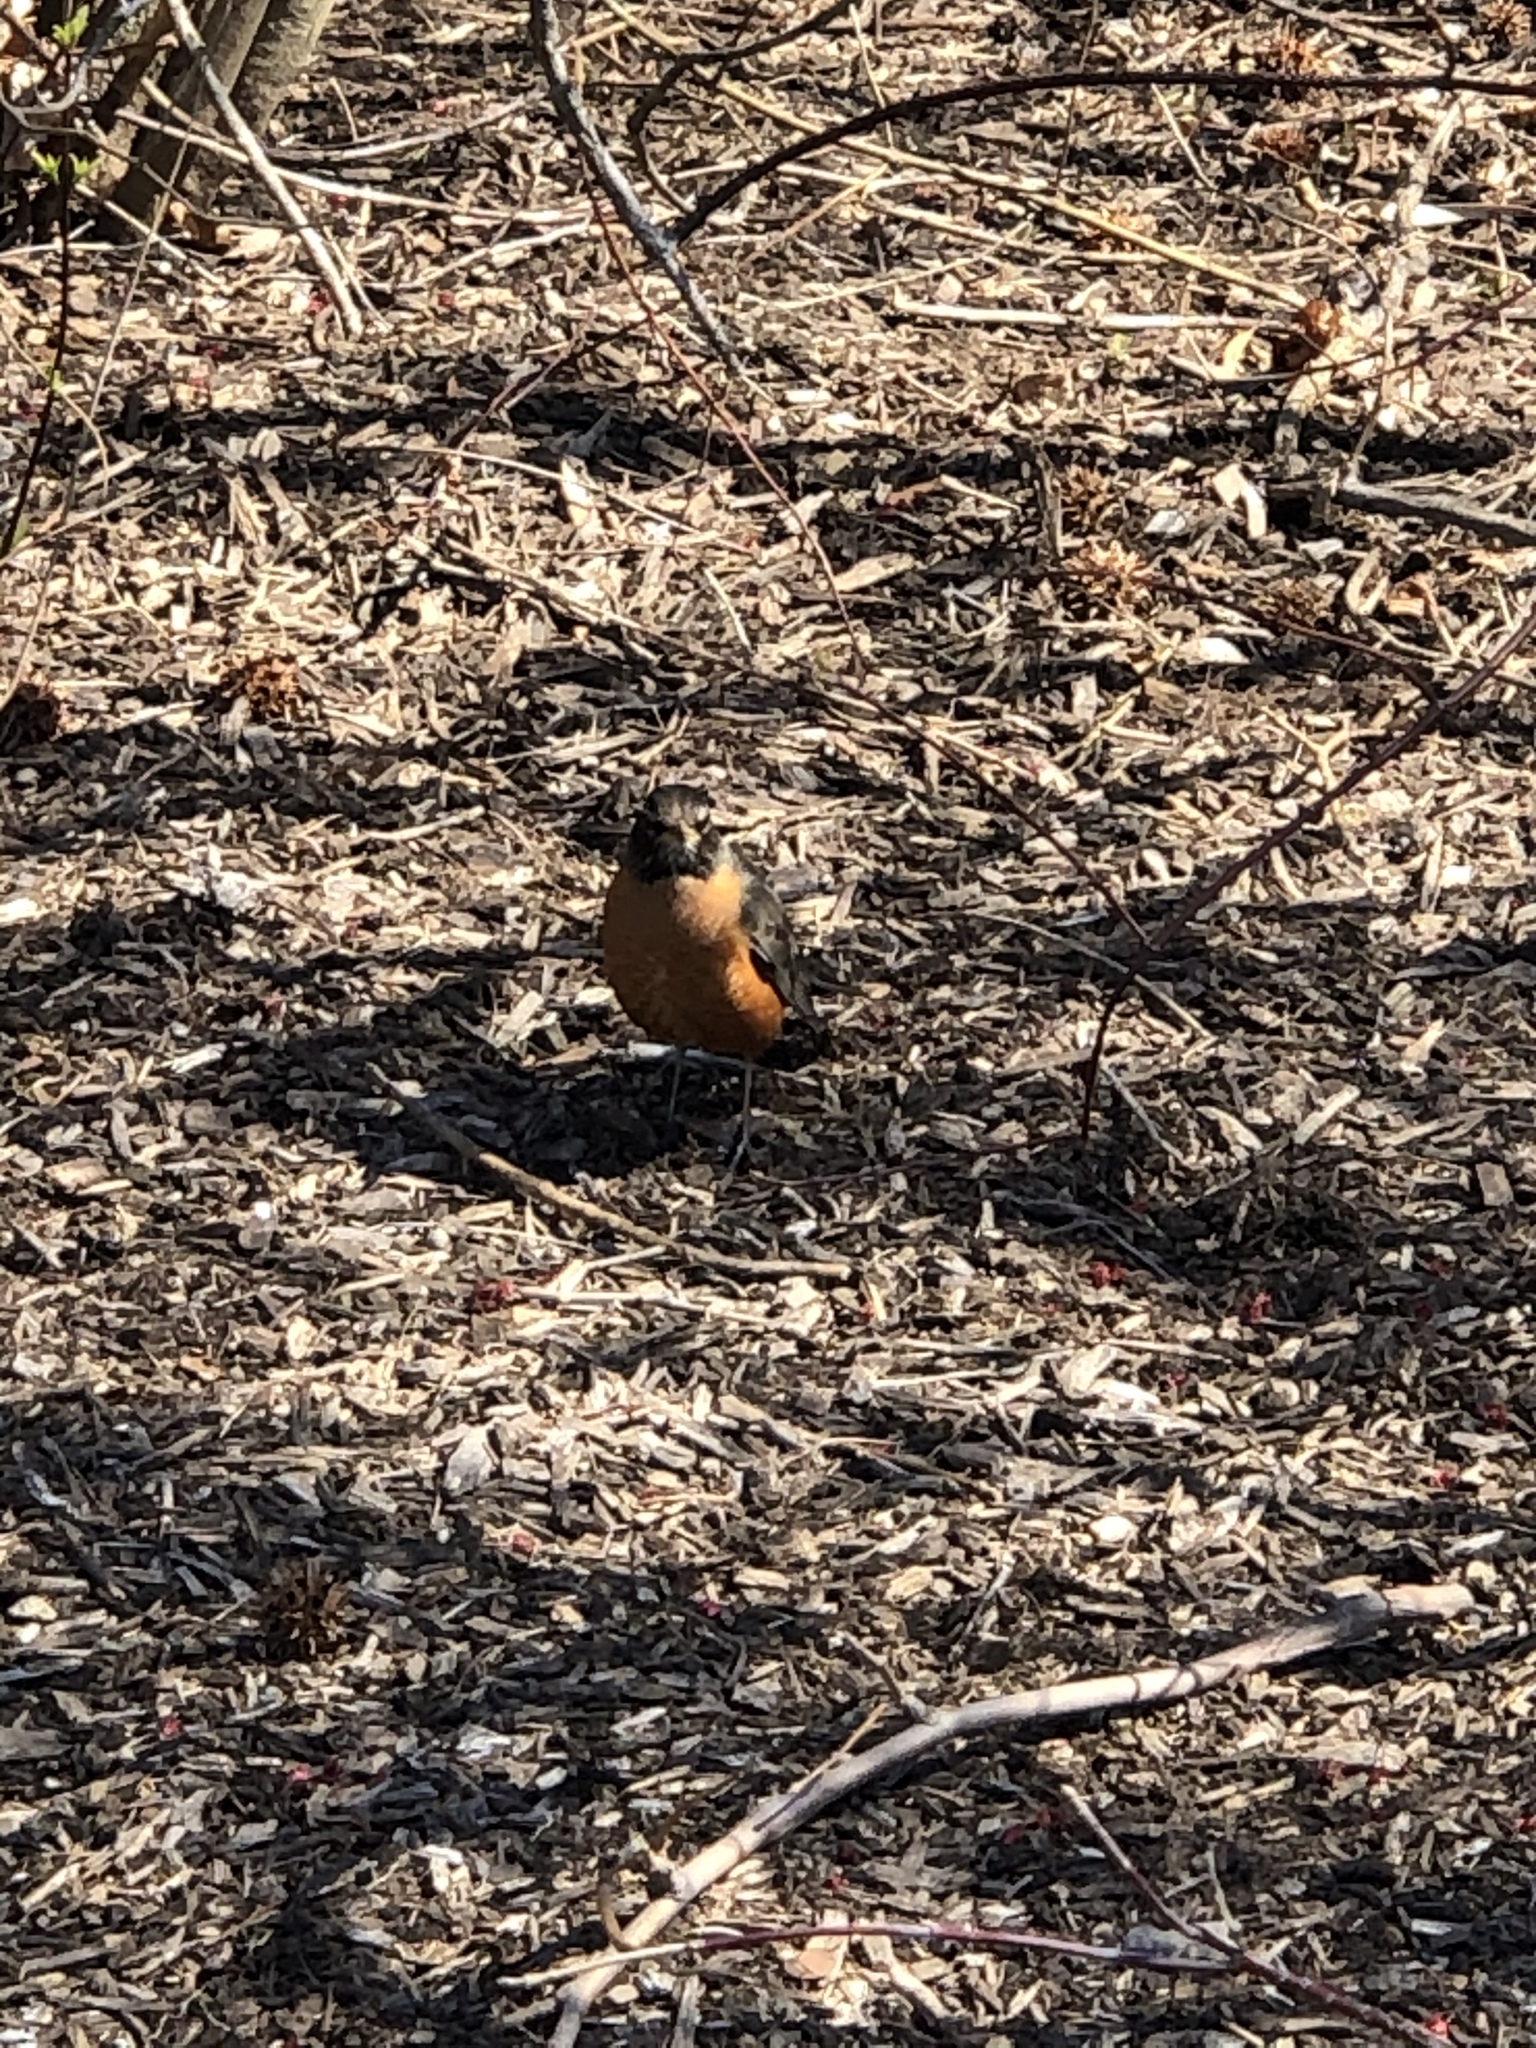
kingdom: Animalia
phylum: Chordata
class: Aves
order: Passeriformes
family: Turdidae
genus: Turdus
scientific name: Turdus migratorius
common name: American robin
